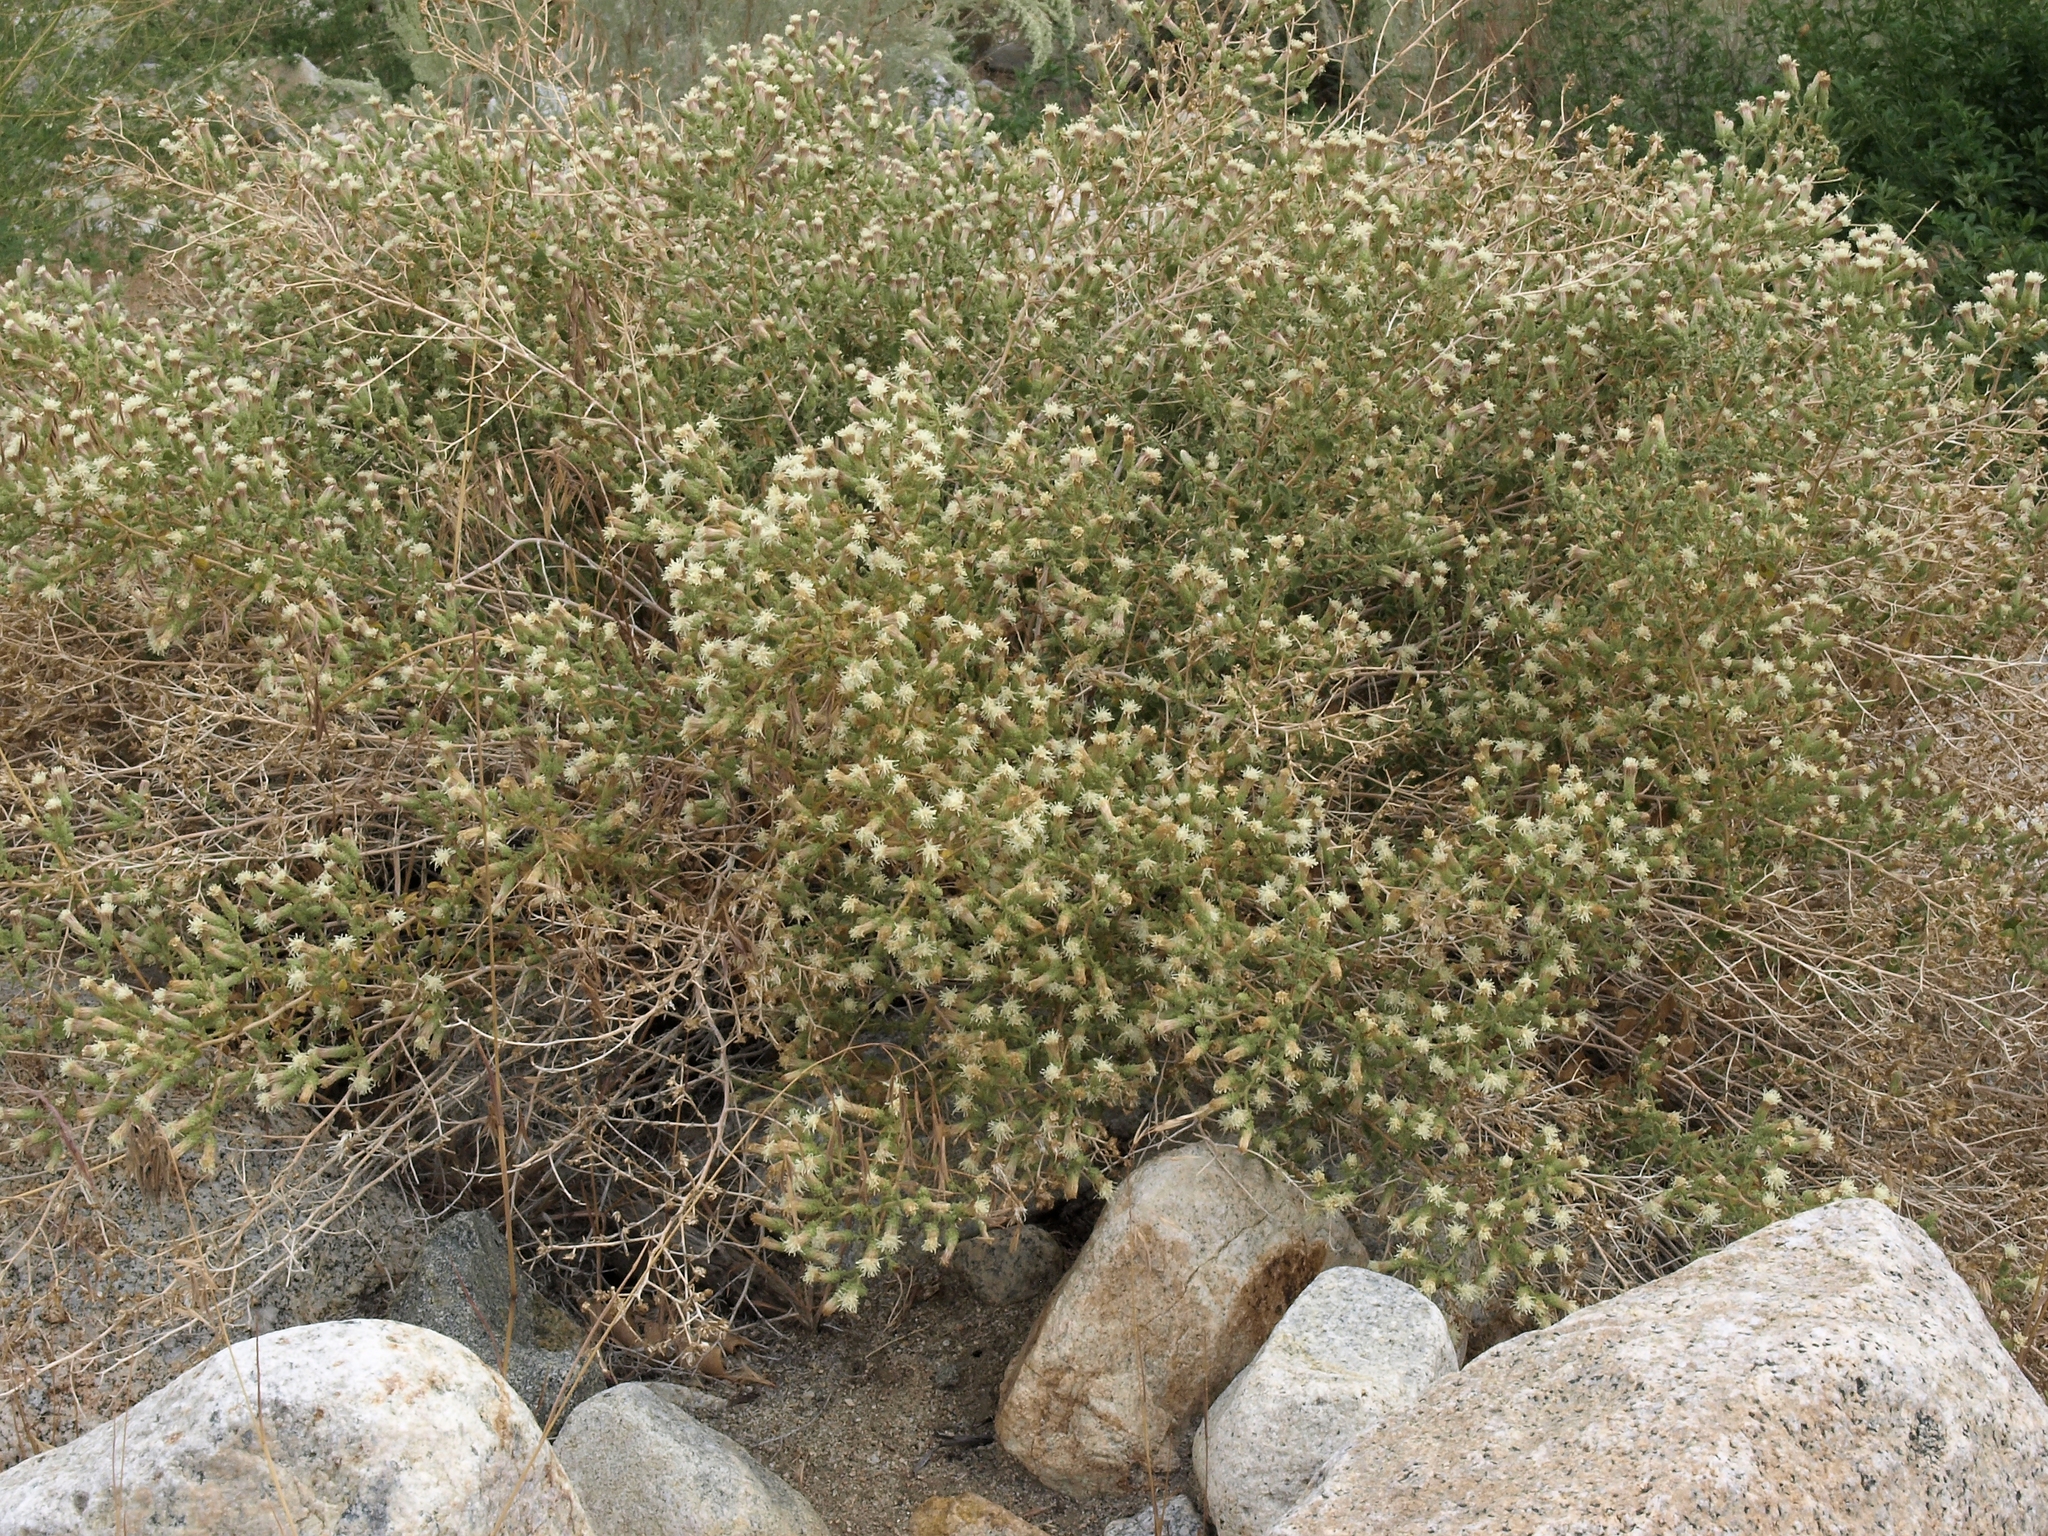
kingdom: Plantae
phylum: Tracheophyta
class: Magnoliopsida
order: Asterales
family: Asteraceae
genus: Brickellia
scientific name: Brickellia microphylla
